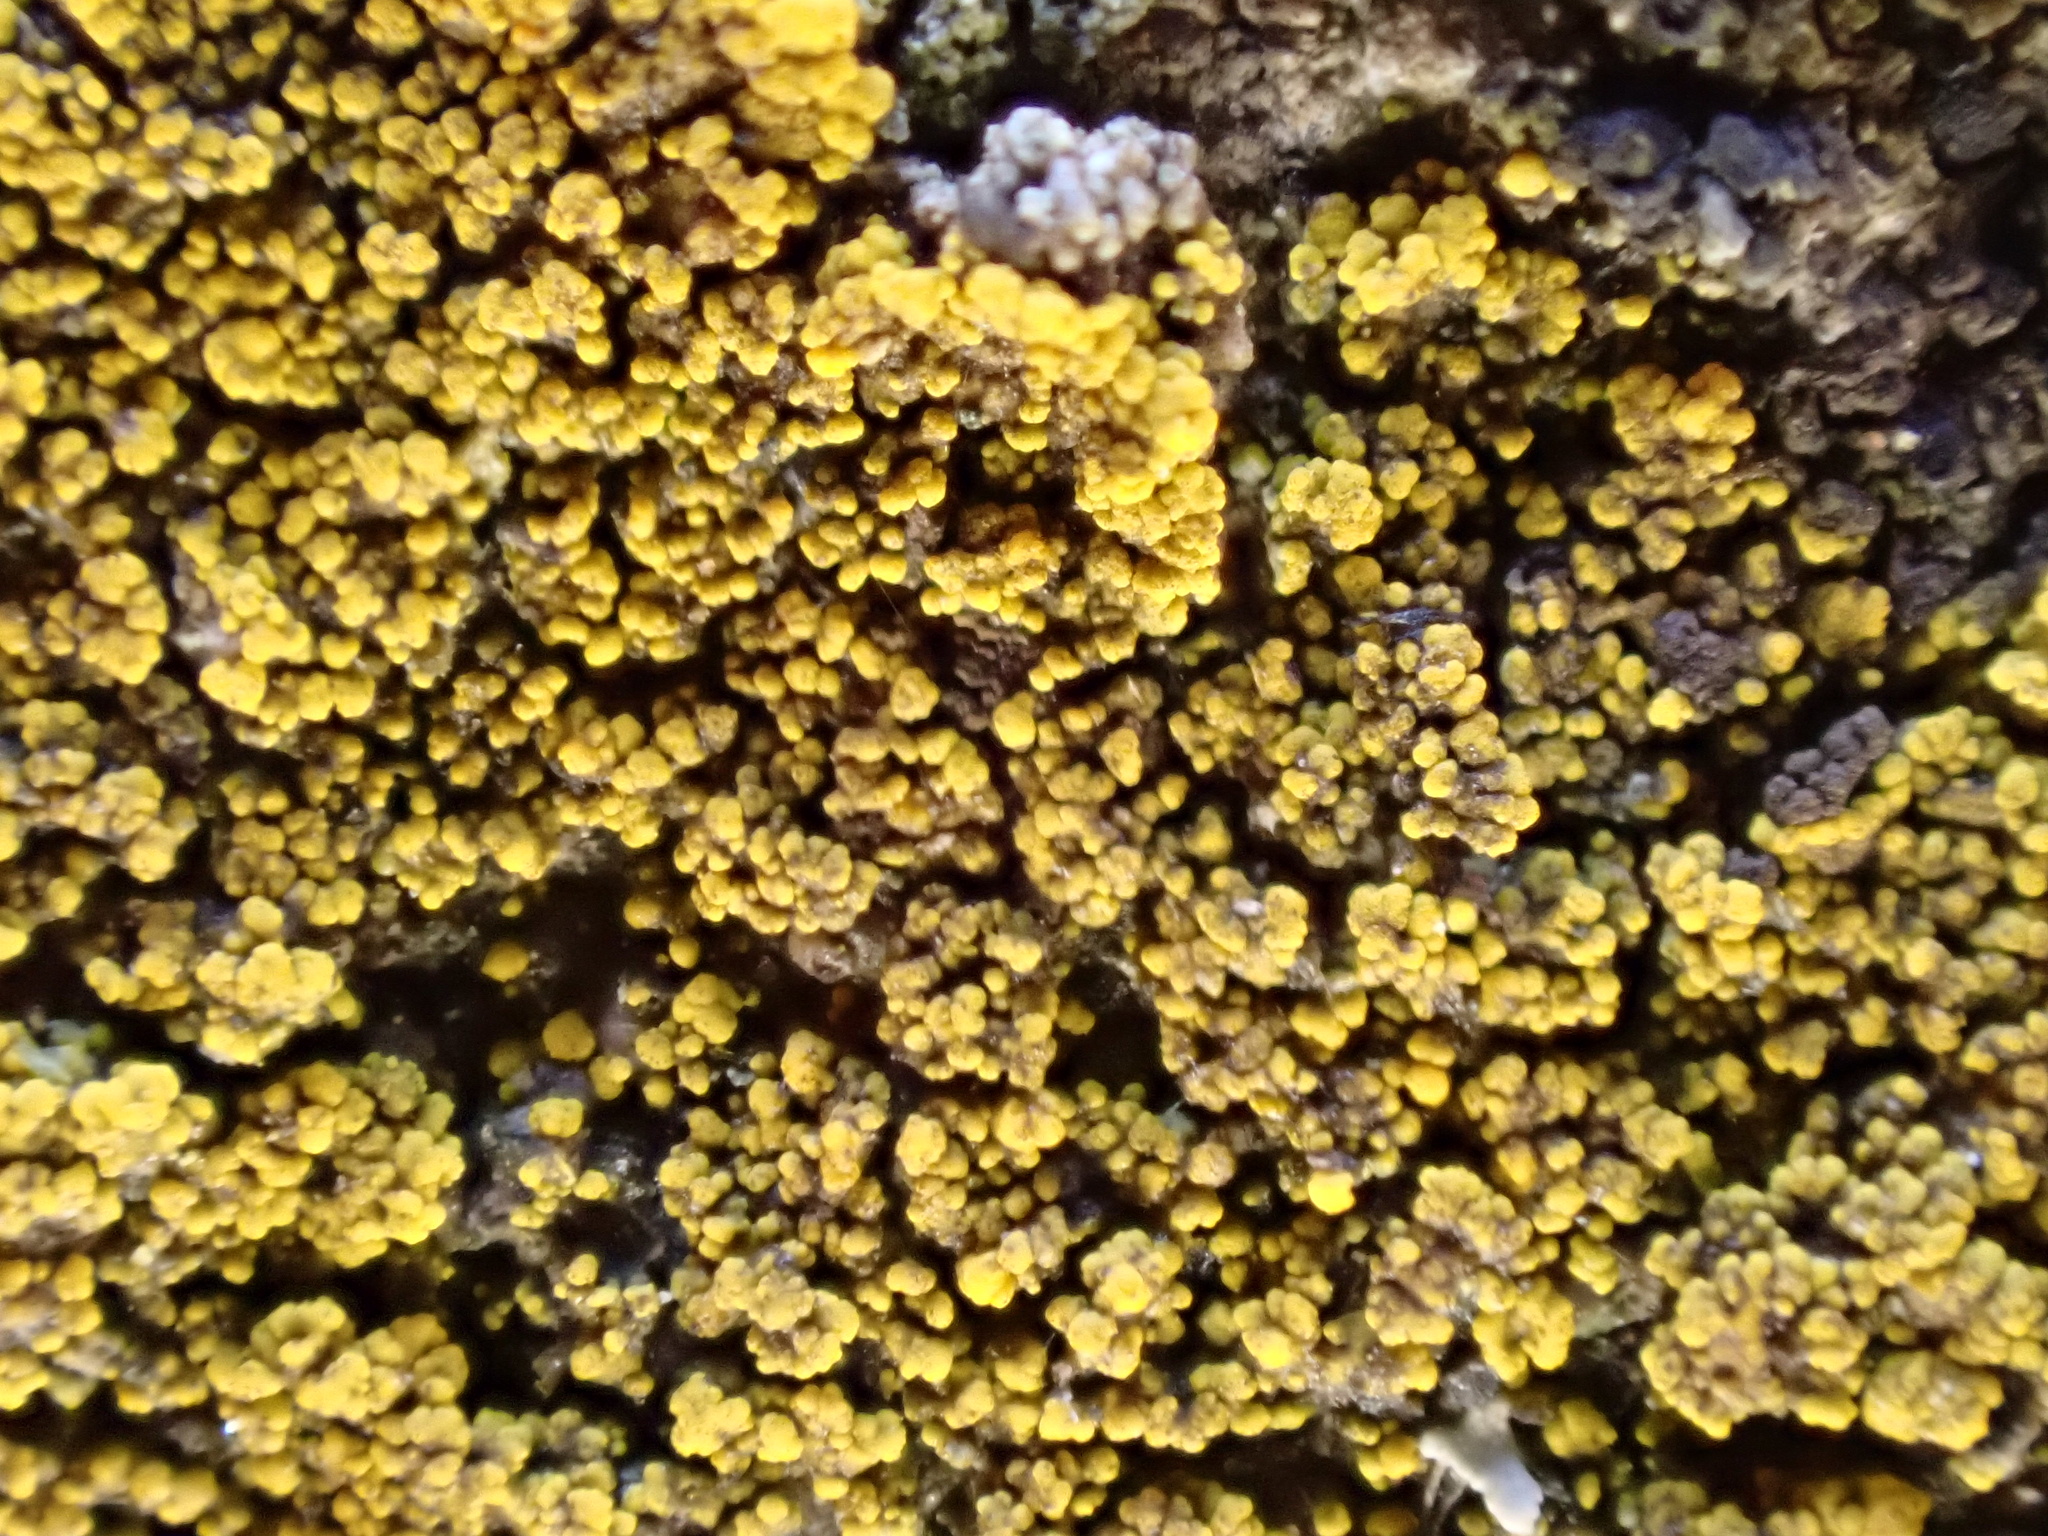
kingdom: Fungi
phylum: Ascomycota
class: Candelariomycetes
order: Candelariales
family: Candelariaceae
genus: Candelariella
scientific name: Candelariella vitellina
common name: Common goldspeck
